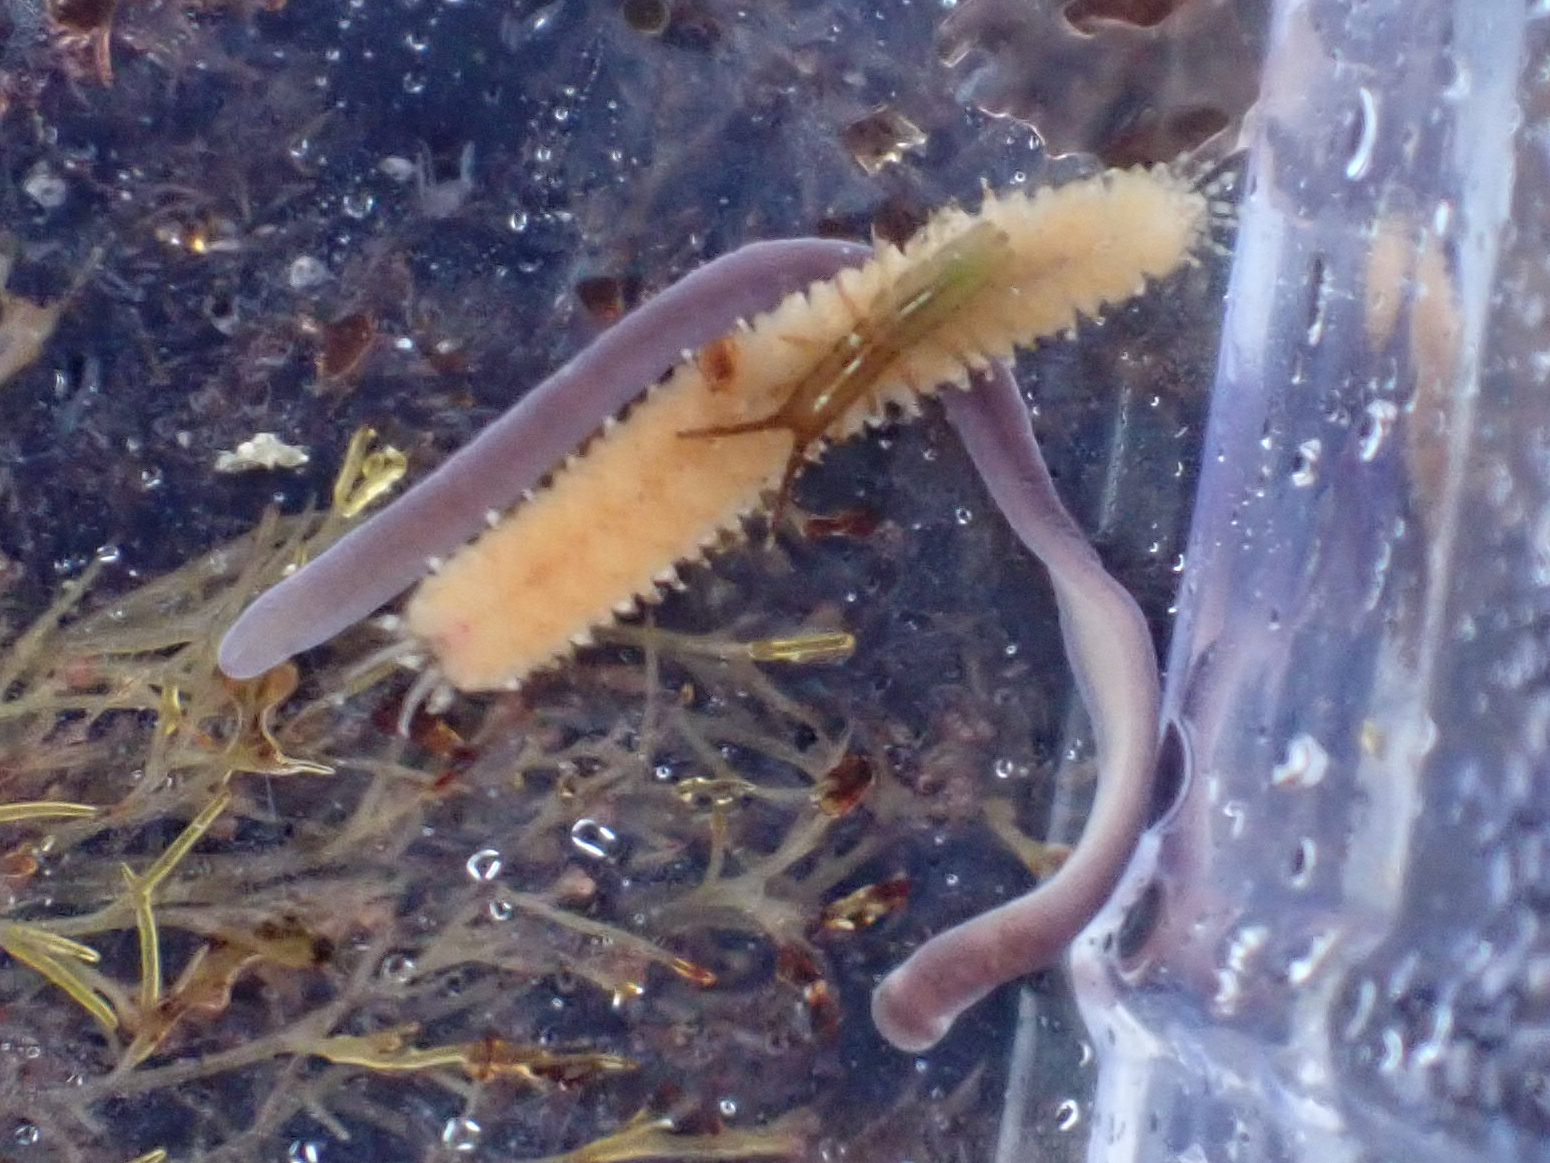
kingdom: Animalia
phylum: Nemertea
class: Hoplonemertea
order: Monostilifera
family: Neesiidae
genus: Paranemertes
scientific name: Paranemertes peregrina
